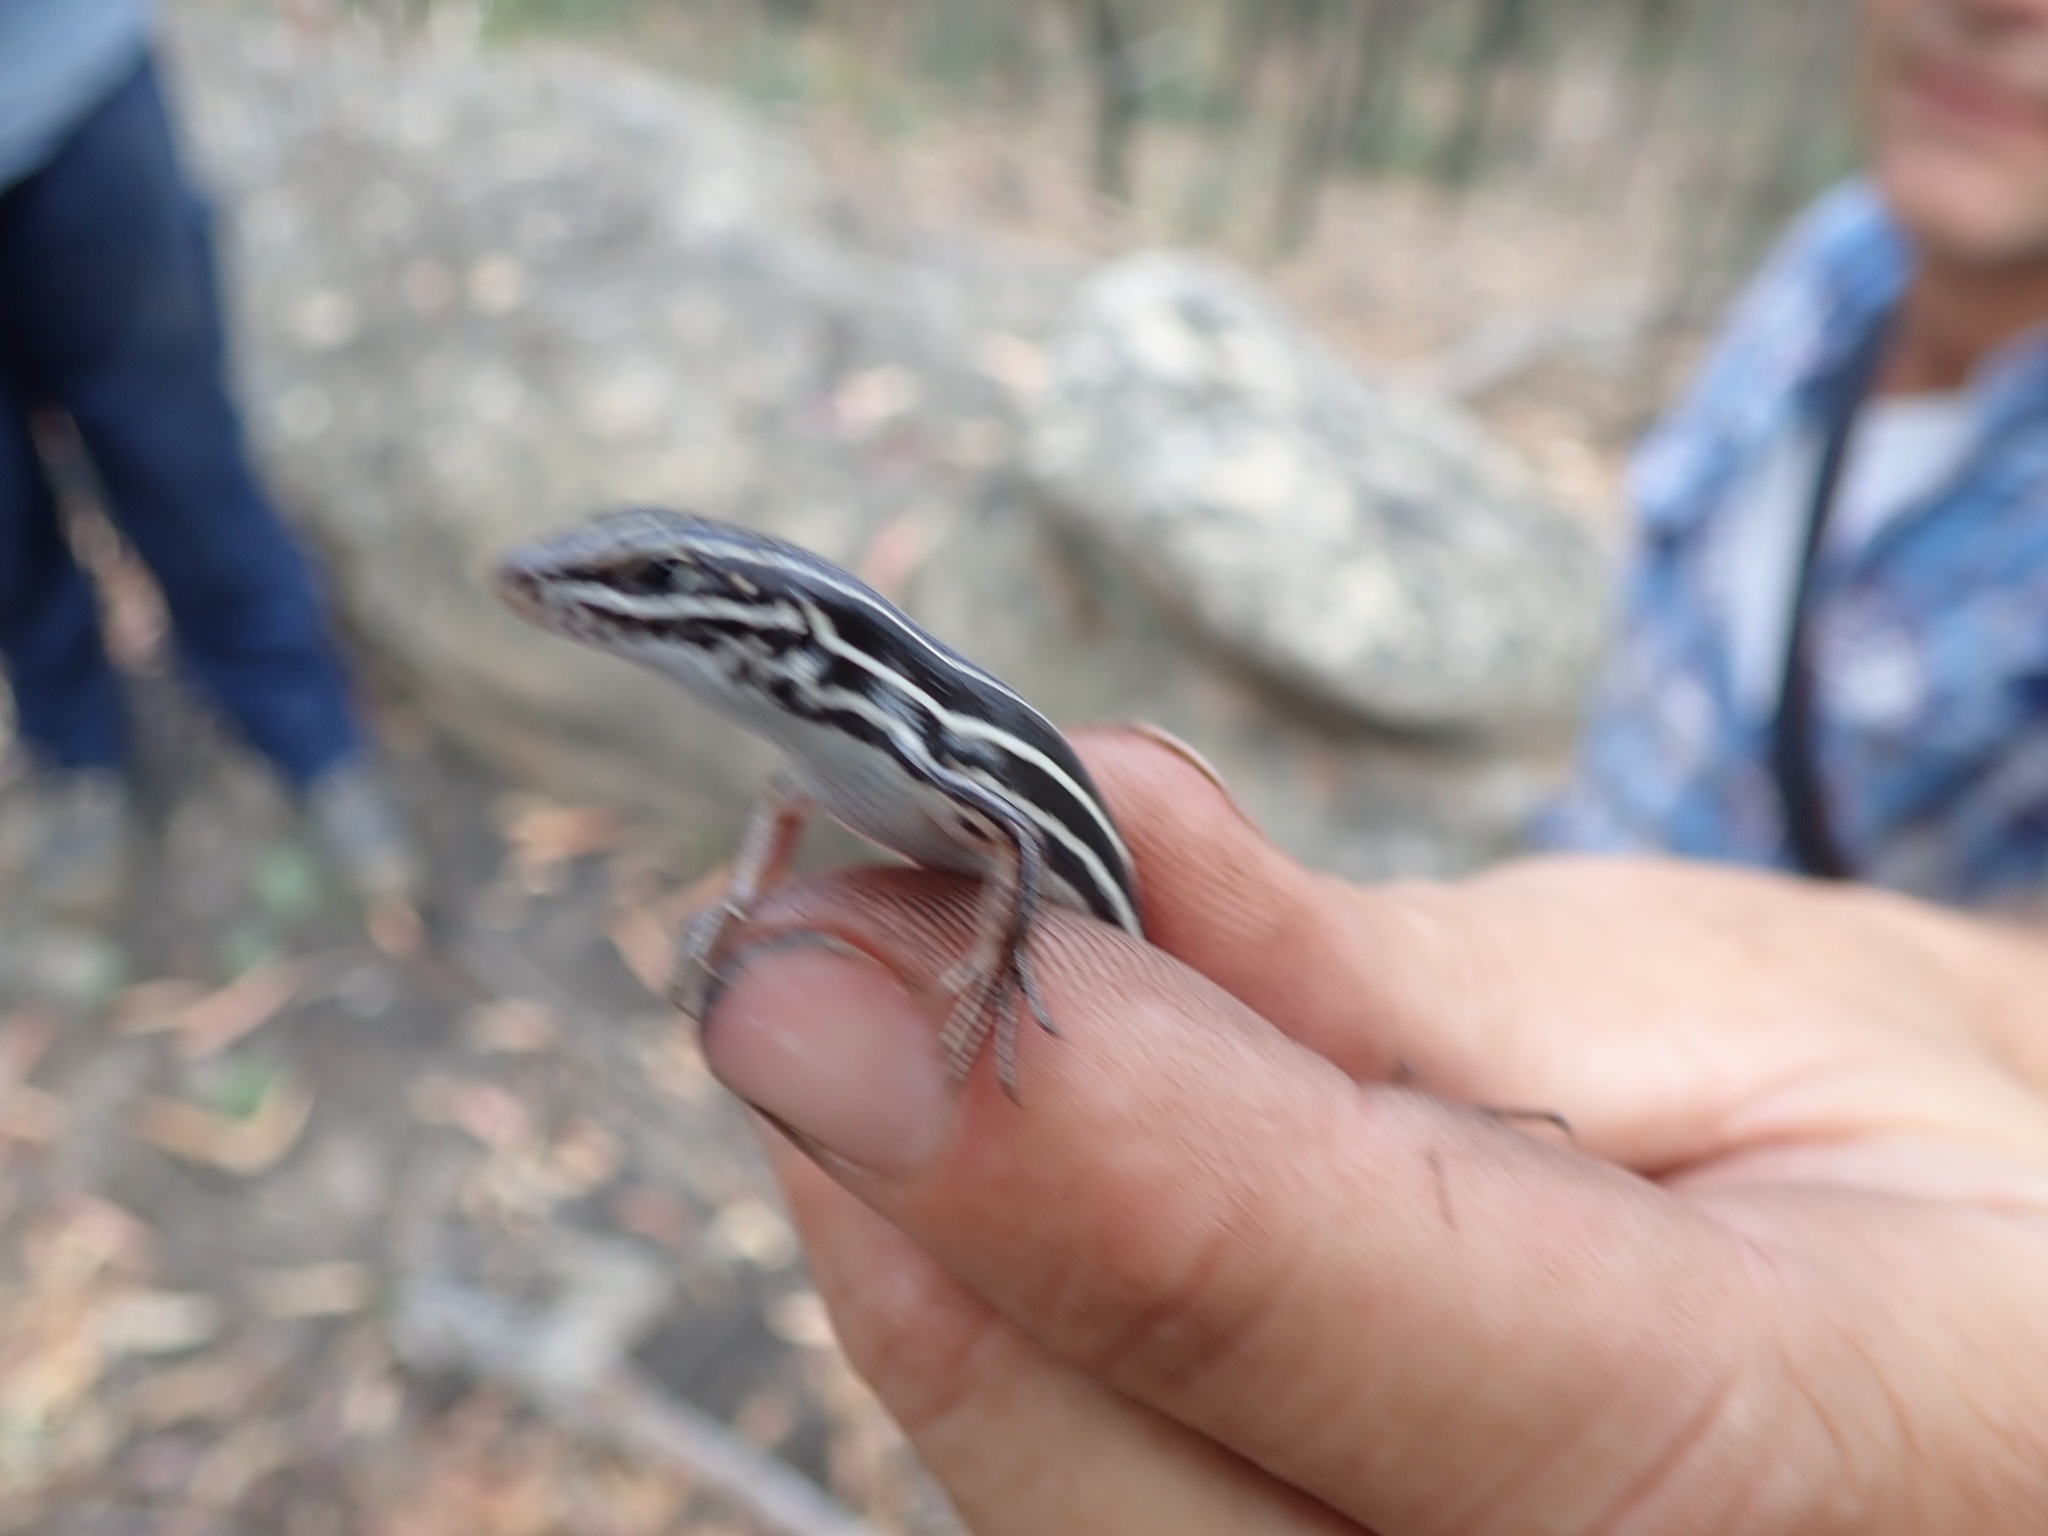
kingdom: Animalia
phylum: Chordata
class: Squamata
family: Scincidae
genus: Ctenotus
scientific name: Ctenotus taeniolatus
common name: Copper-tailed skink
